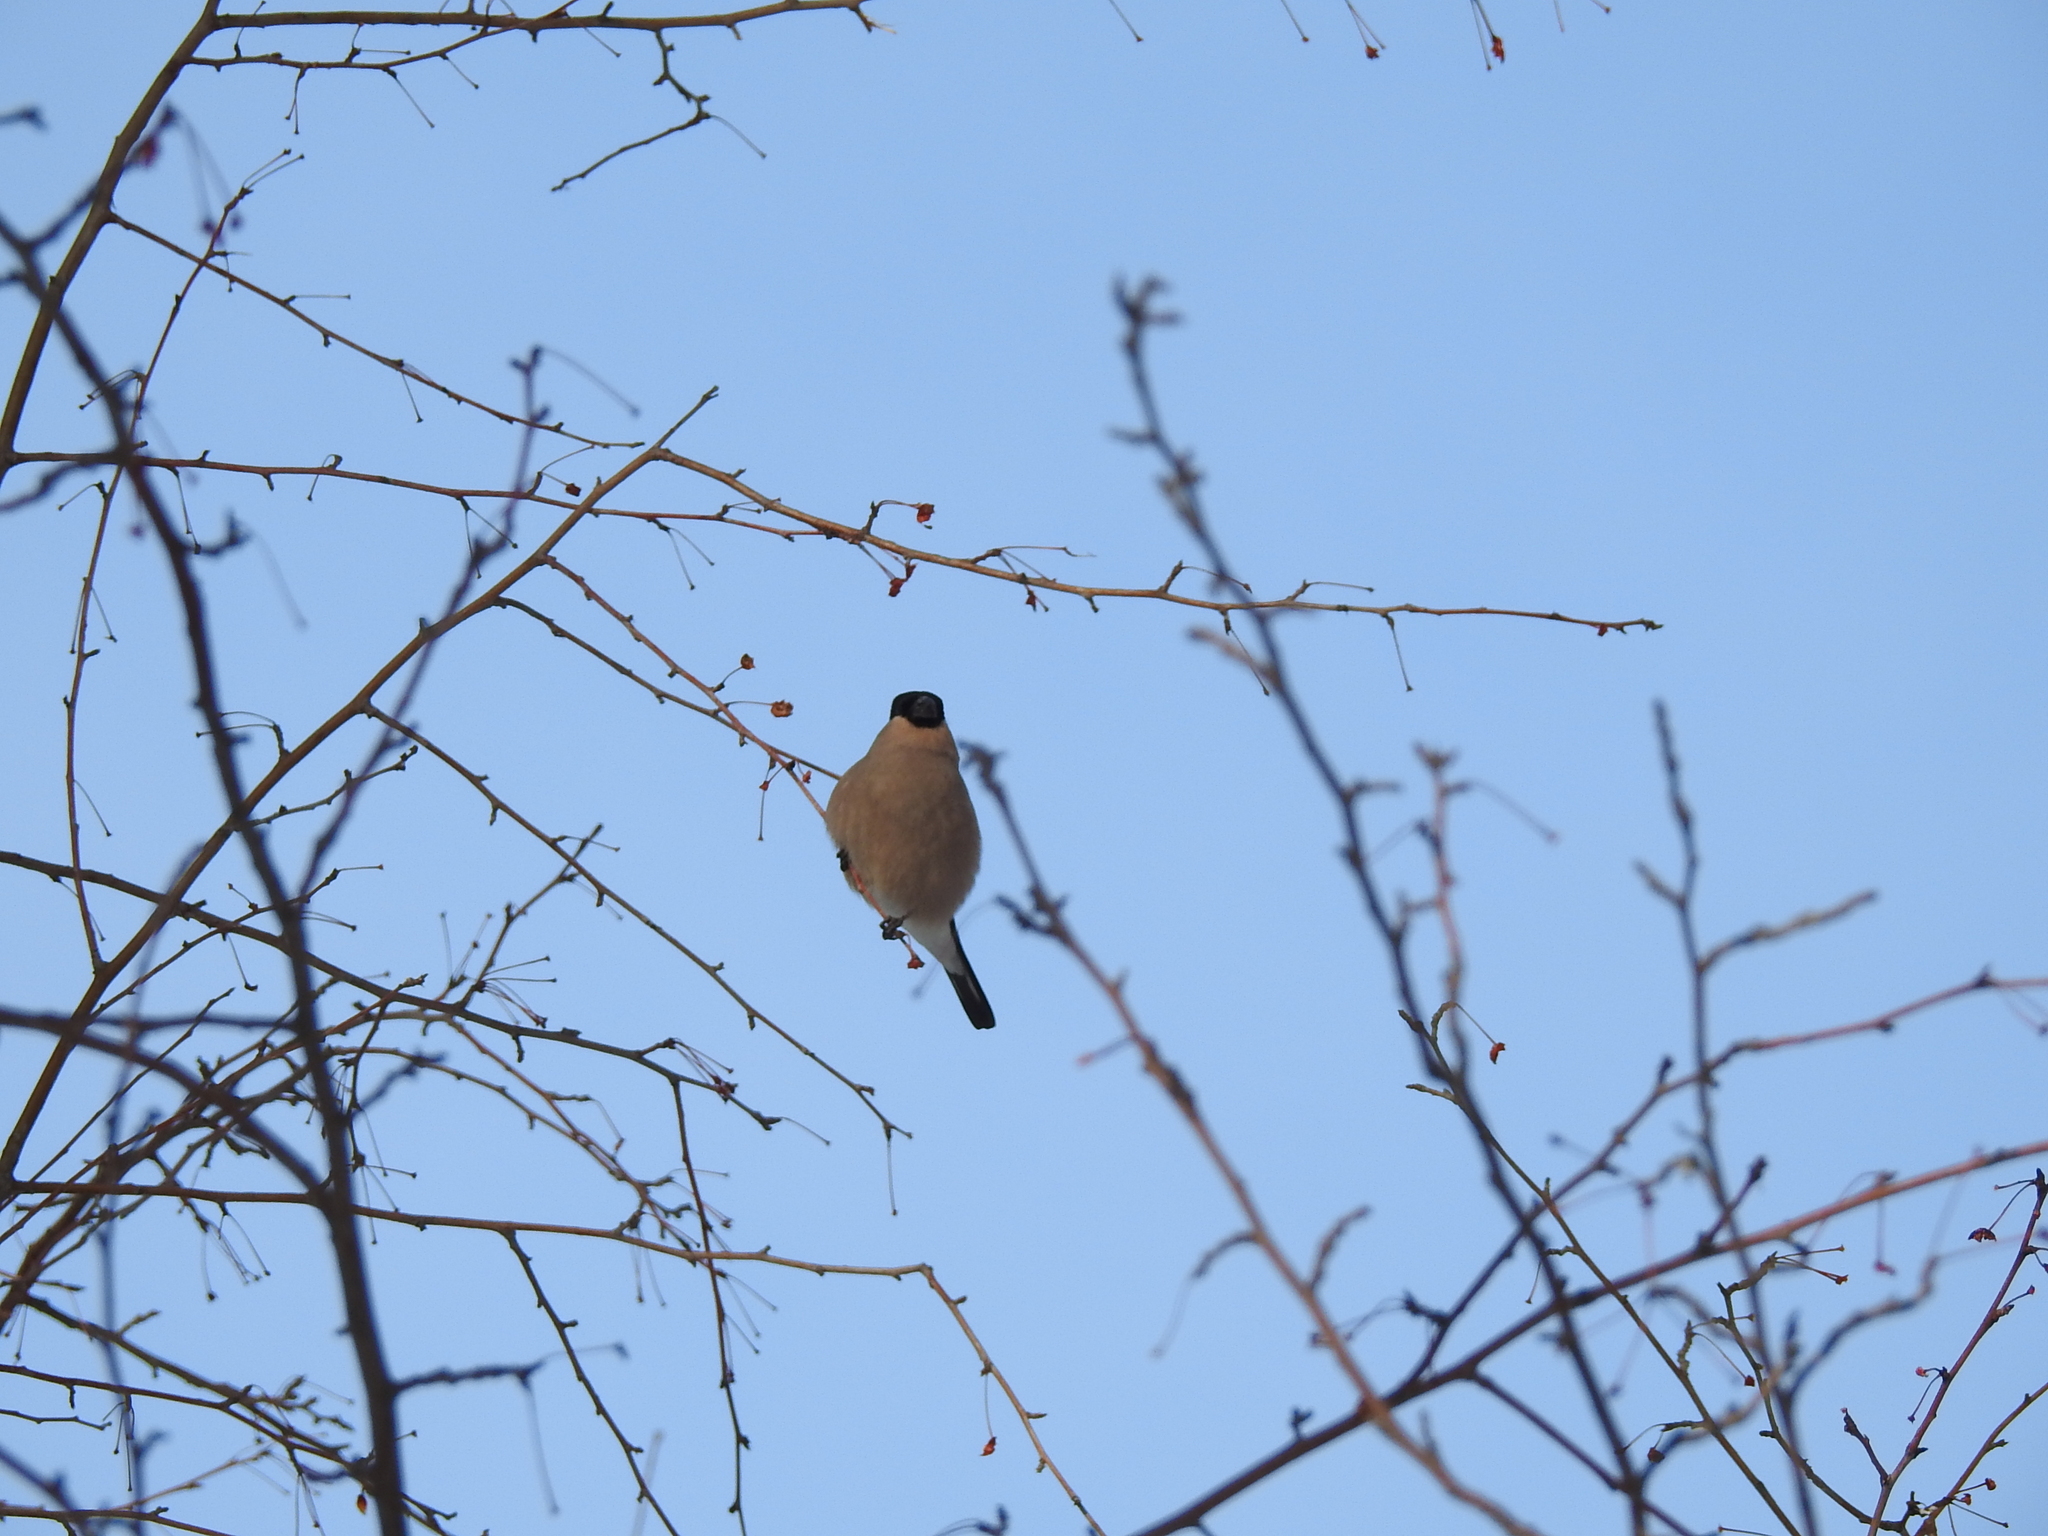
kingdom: Animalia
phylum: Chordata
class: Aves
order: Passeriformes
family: Fringillidae
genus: Pyrrhula
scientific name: Pyrrhula pyrrhula
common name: Eurasian bullfinch
